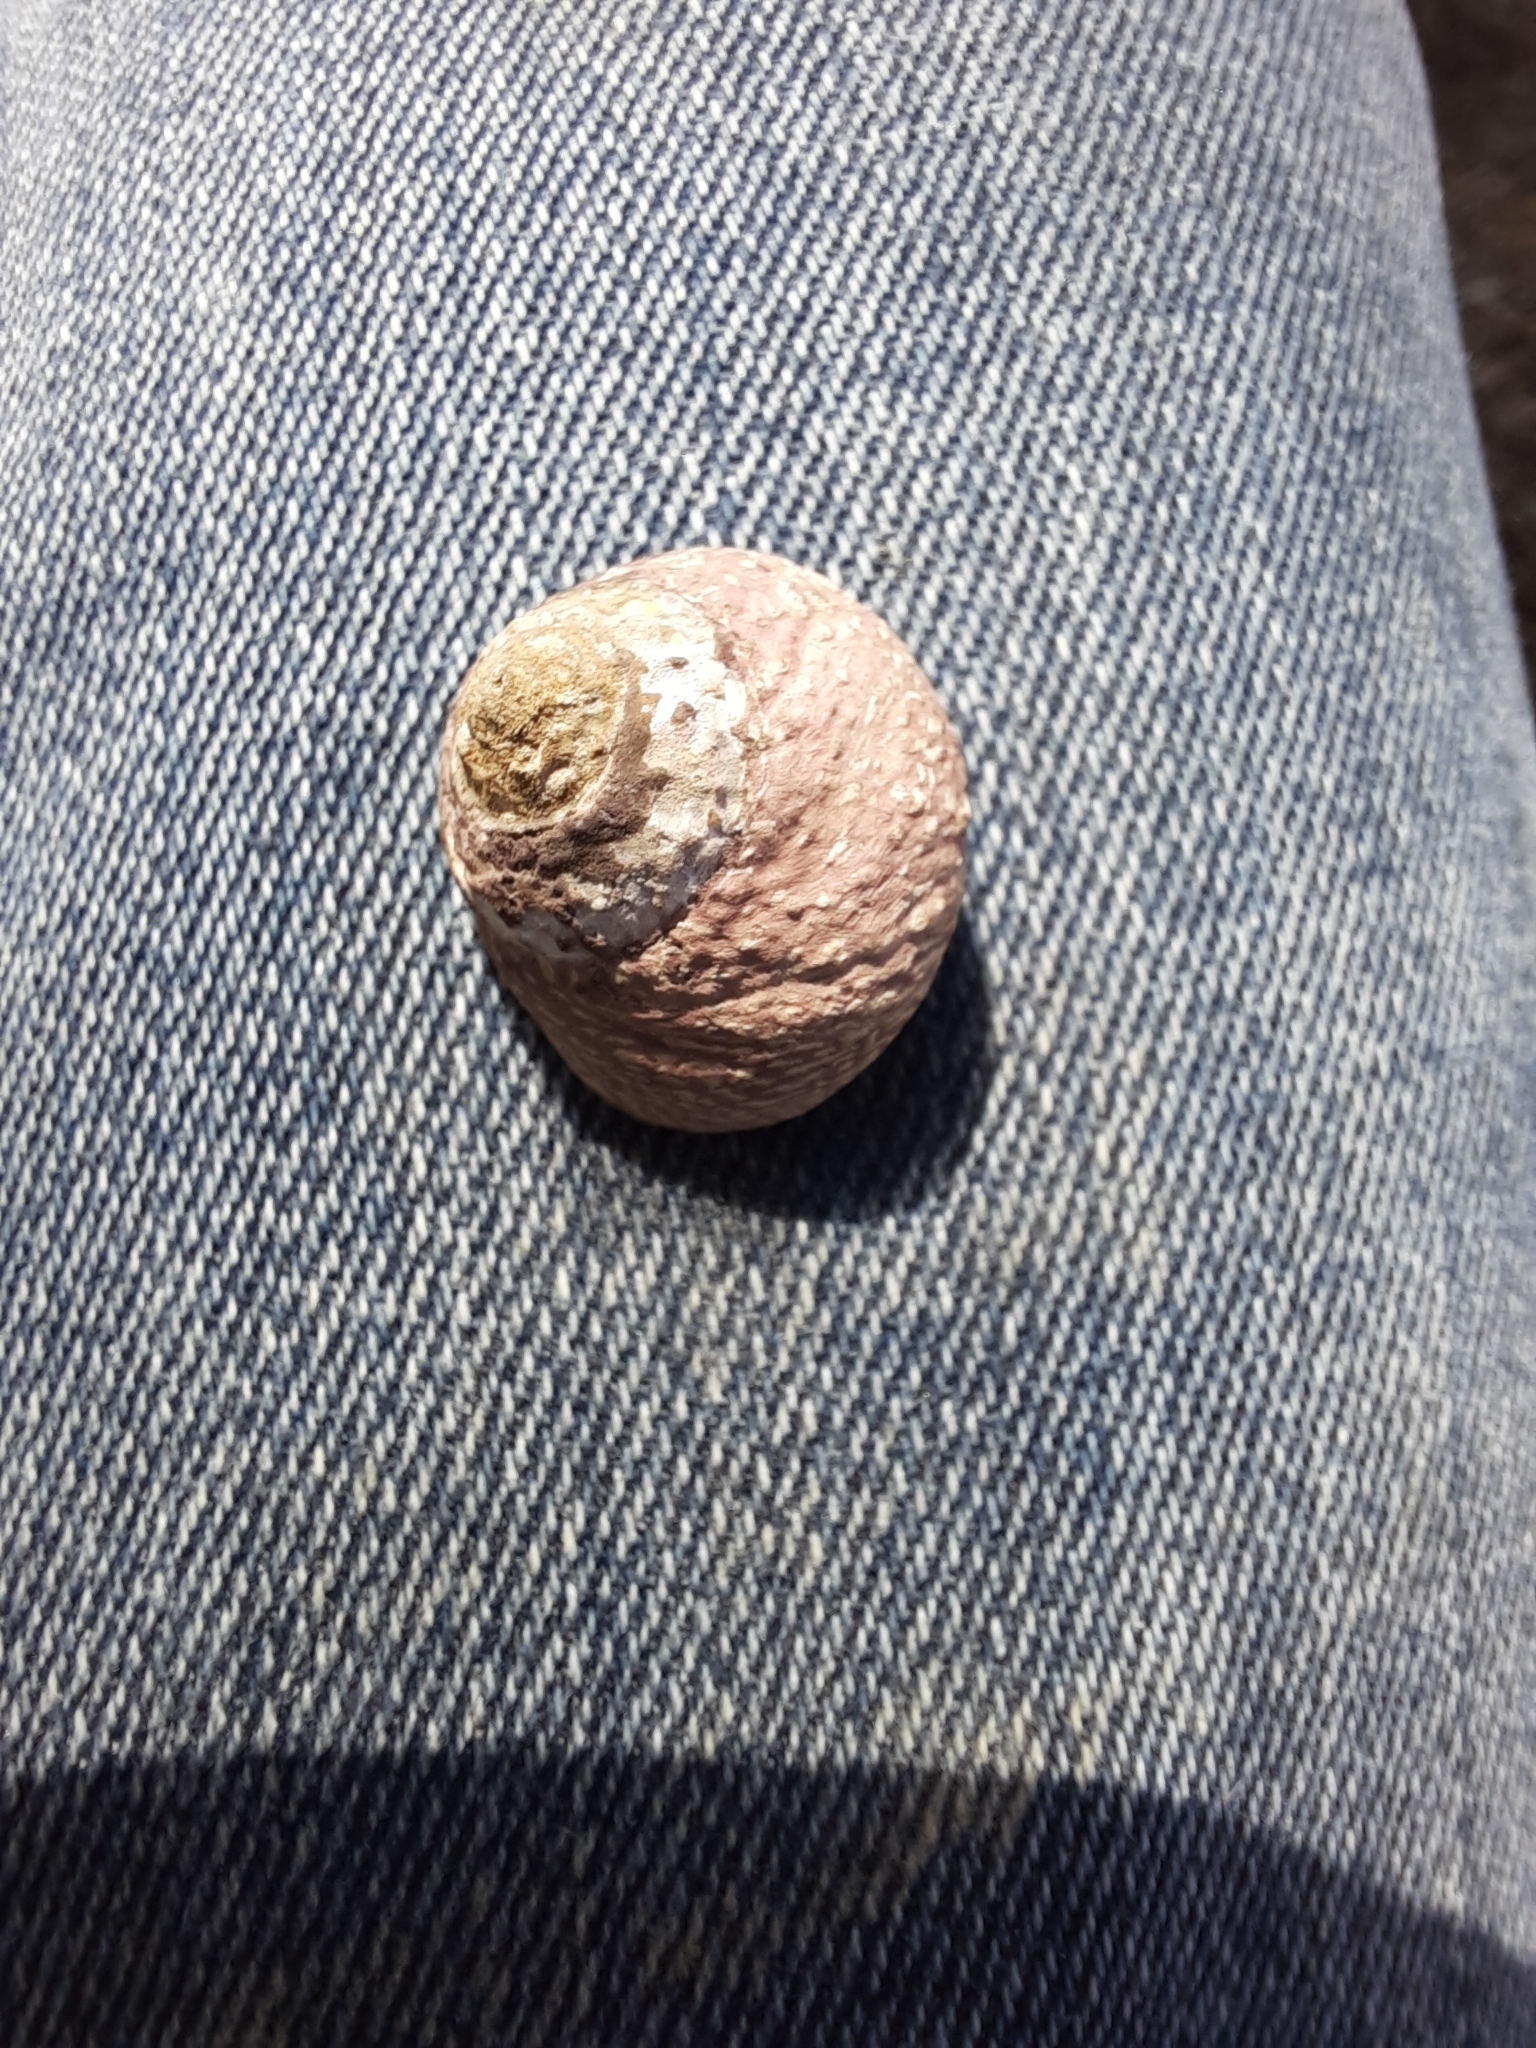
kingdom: Animalia
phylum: Mollusca
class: Gastropoda
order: Trochida
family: Trochidae
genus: Phorcus
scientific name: Phorcus lineatus
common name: Toothed top shell
